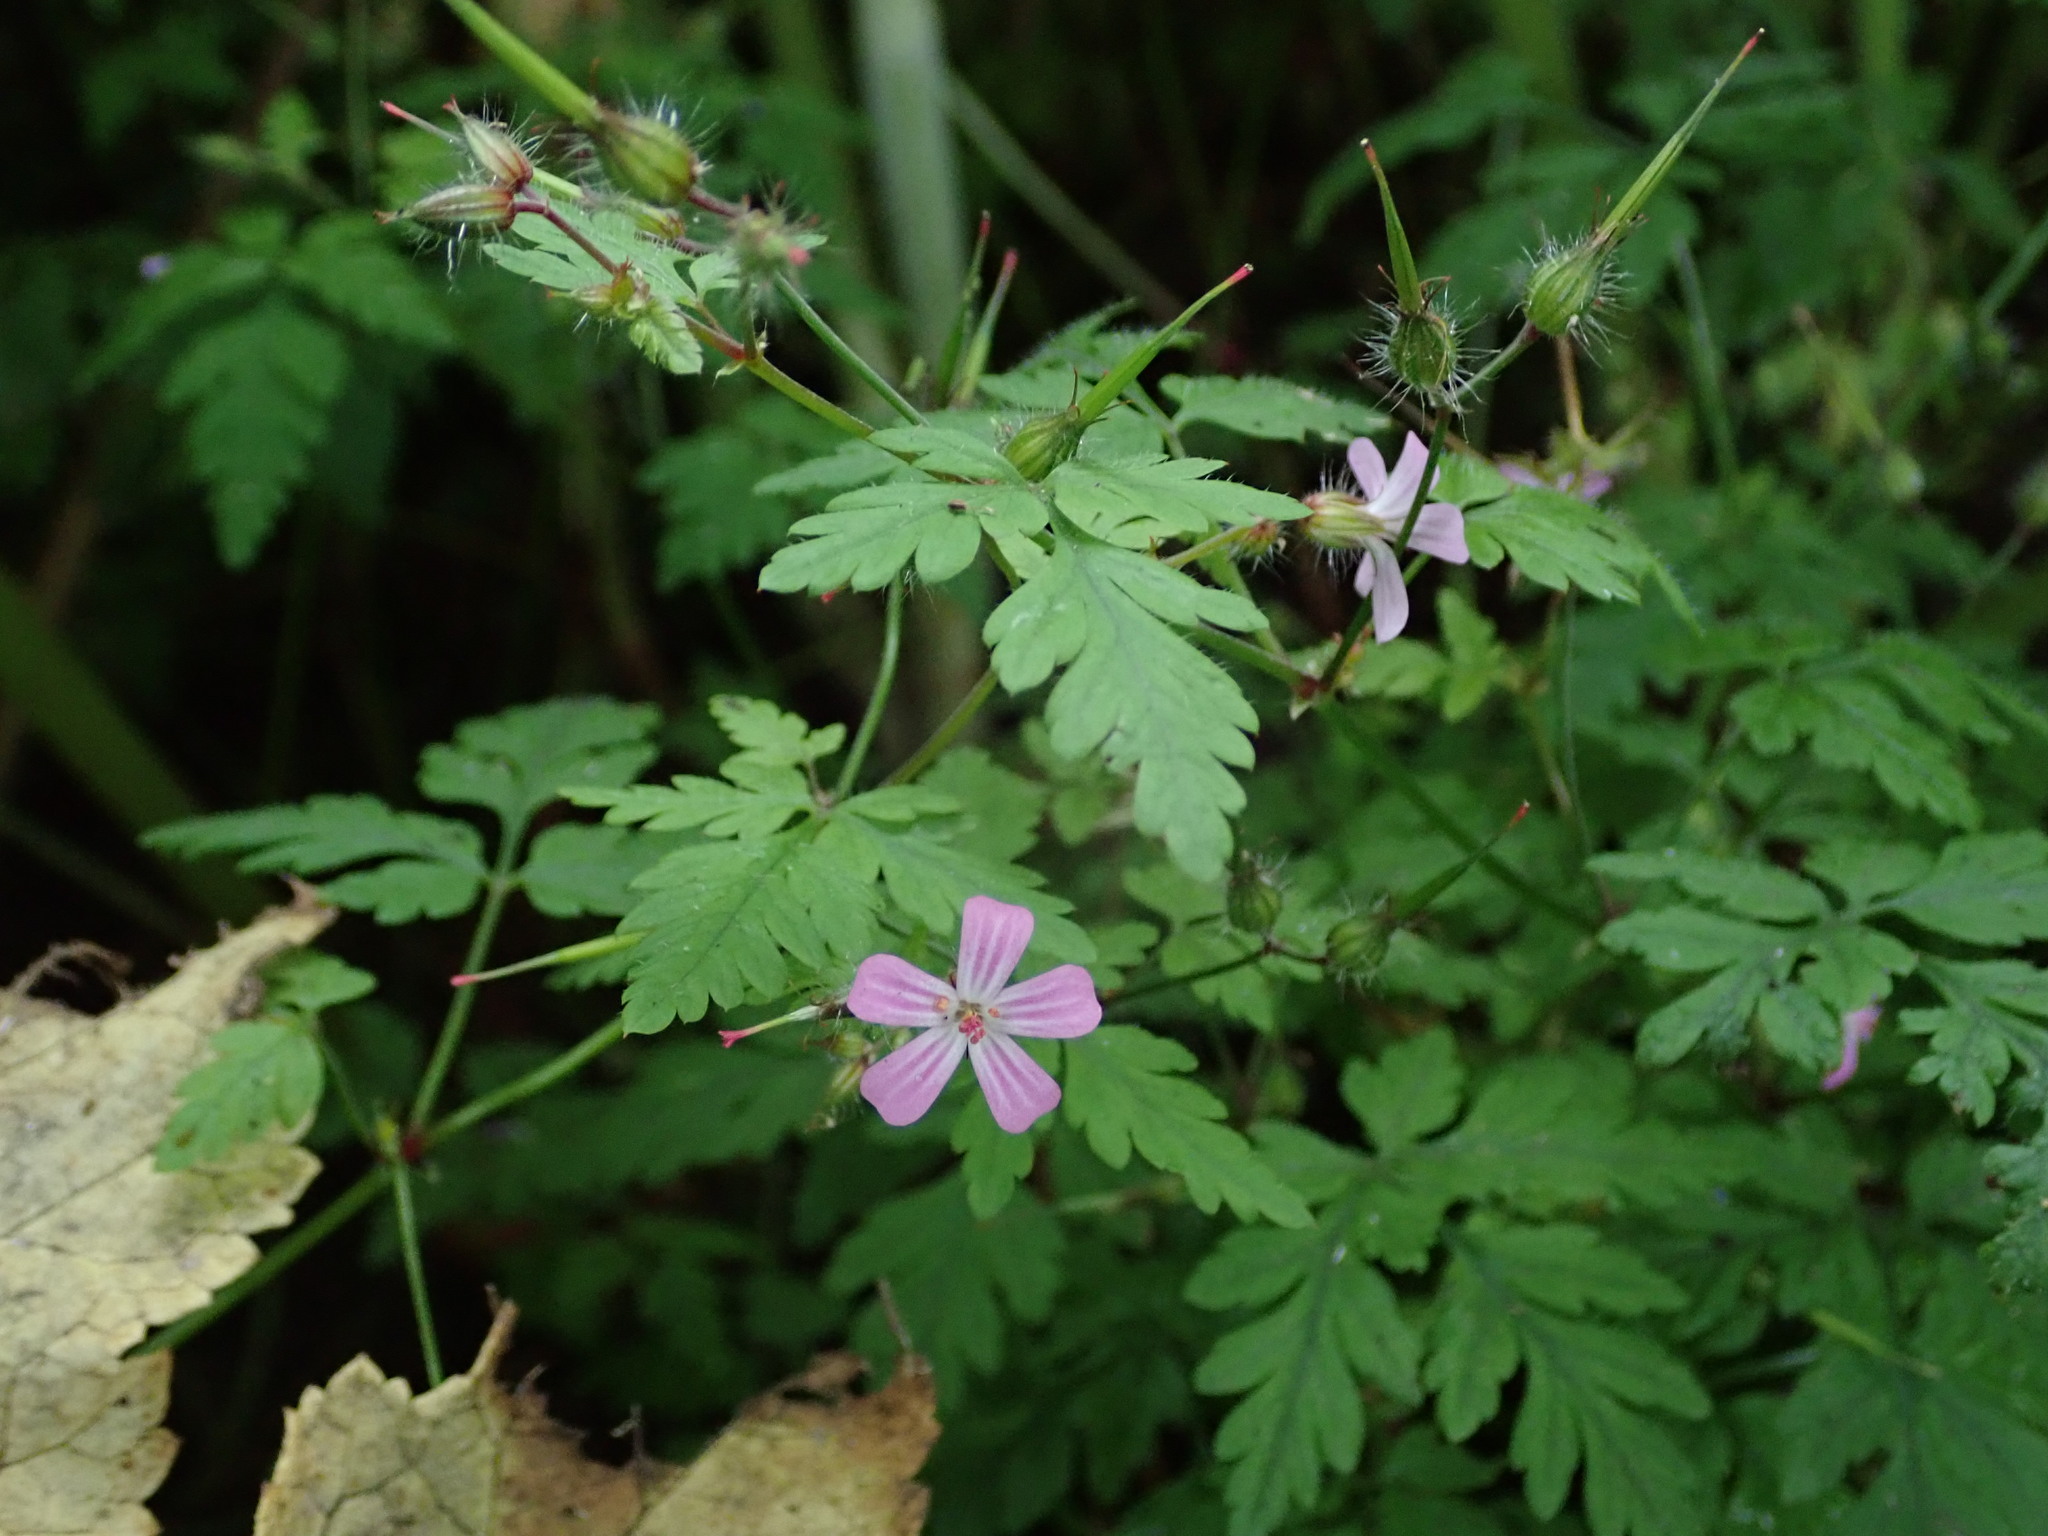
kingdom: Plantae
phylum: Tracheophyta
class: Magnoliopsida
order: Geraniales
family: Geraniaceae
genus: Geranium
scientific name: Geranium robertianum
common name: Herb-robert
